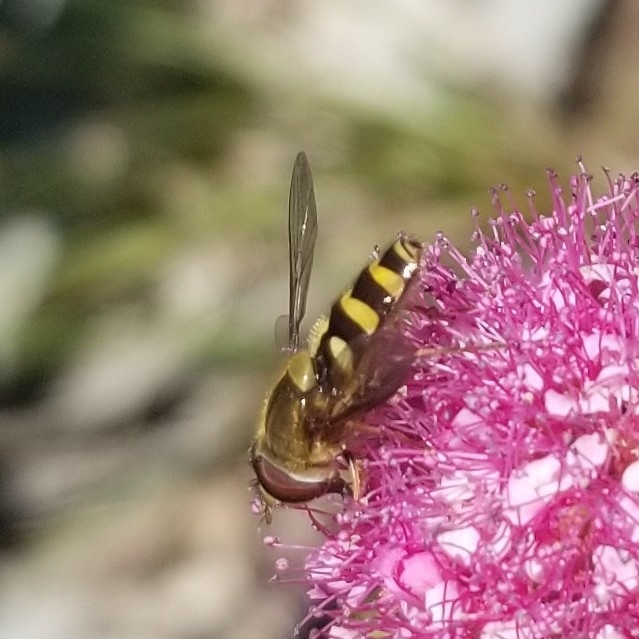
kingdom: Animalia
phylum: Arthropoda
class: Insecta
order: Diptera
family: Syrphidae
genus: Syrphus
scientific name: Syrphus opinator
